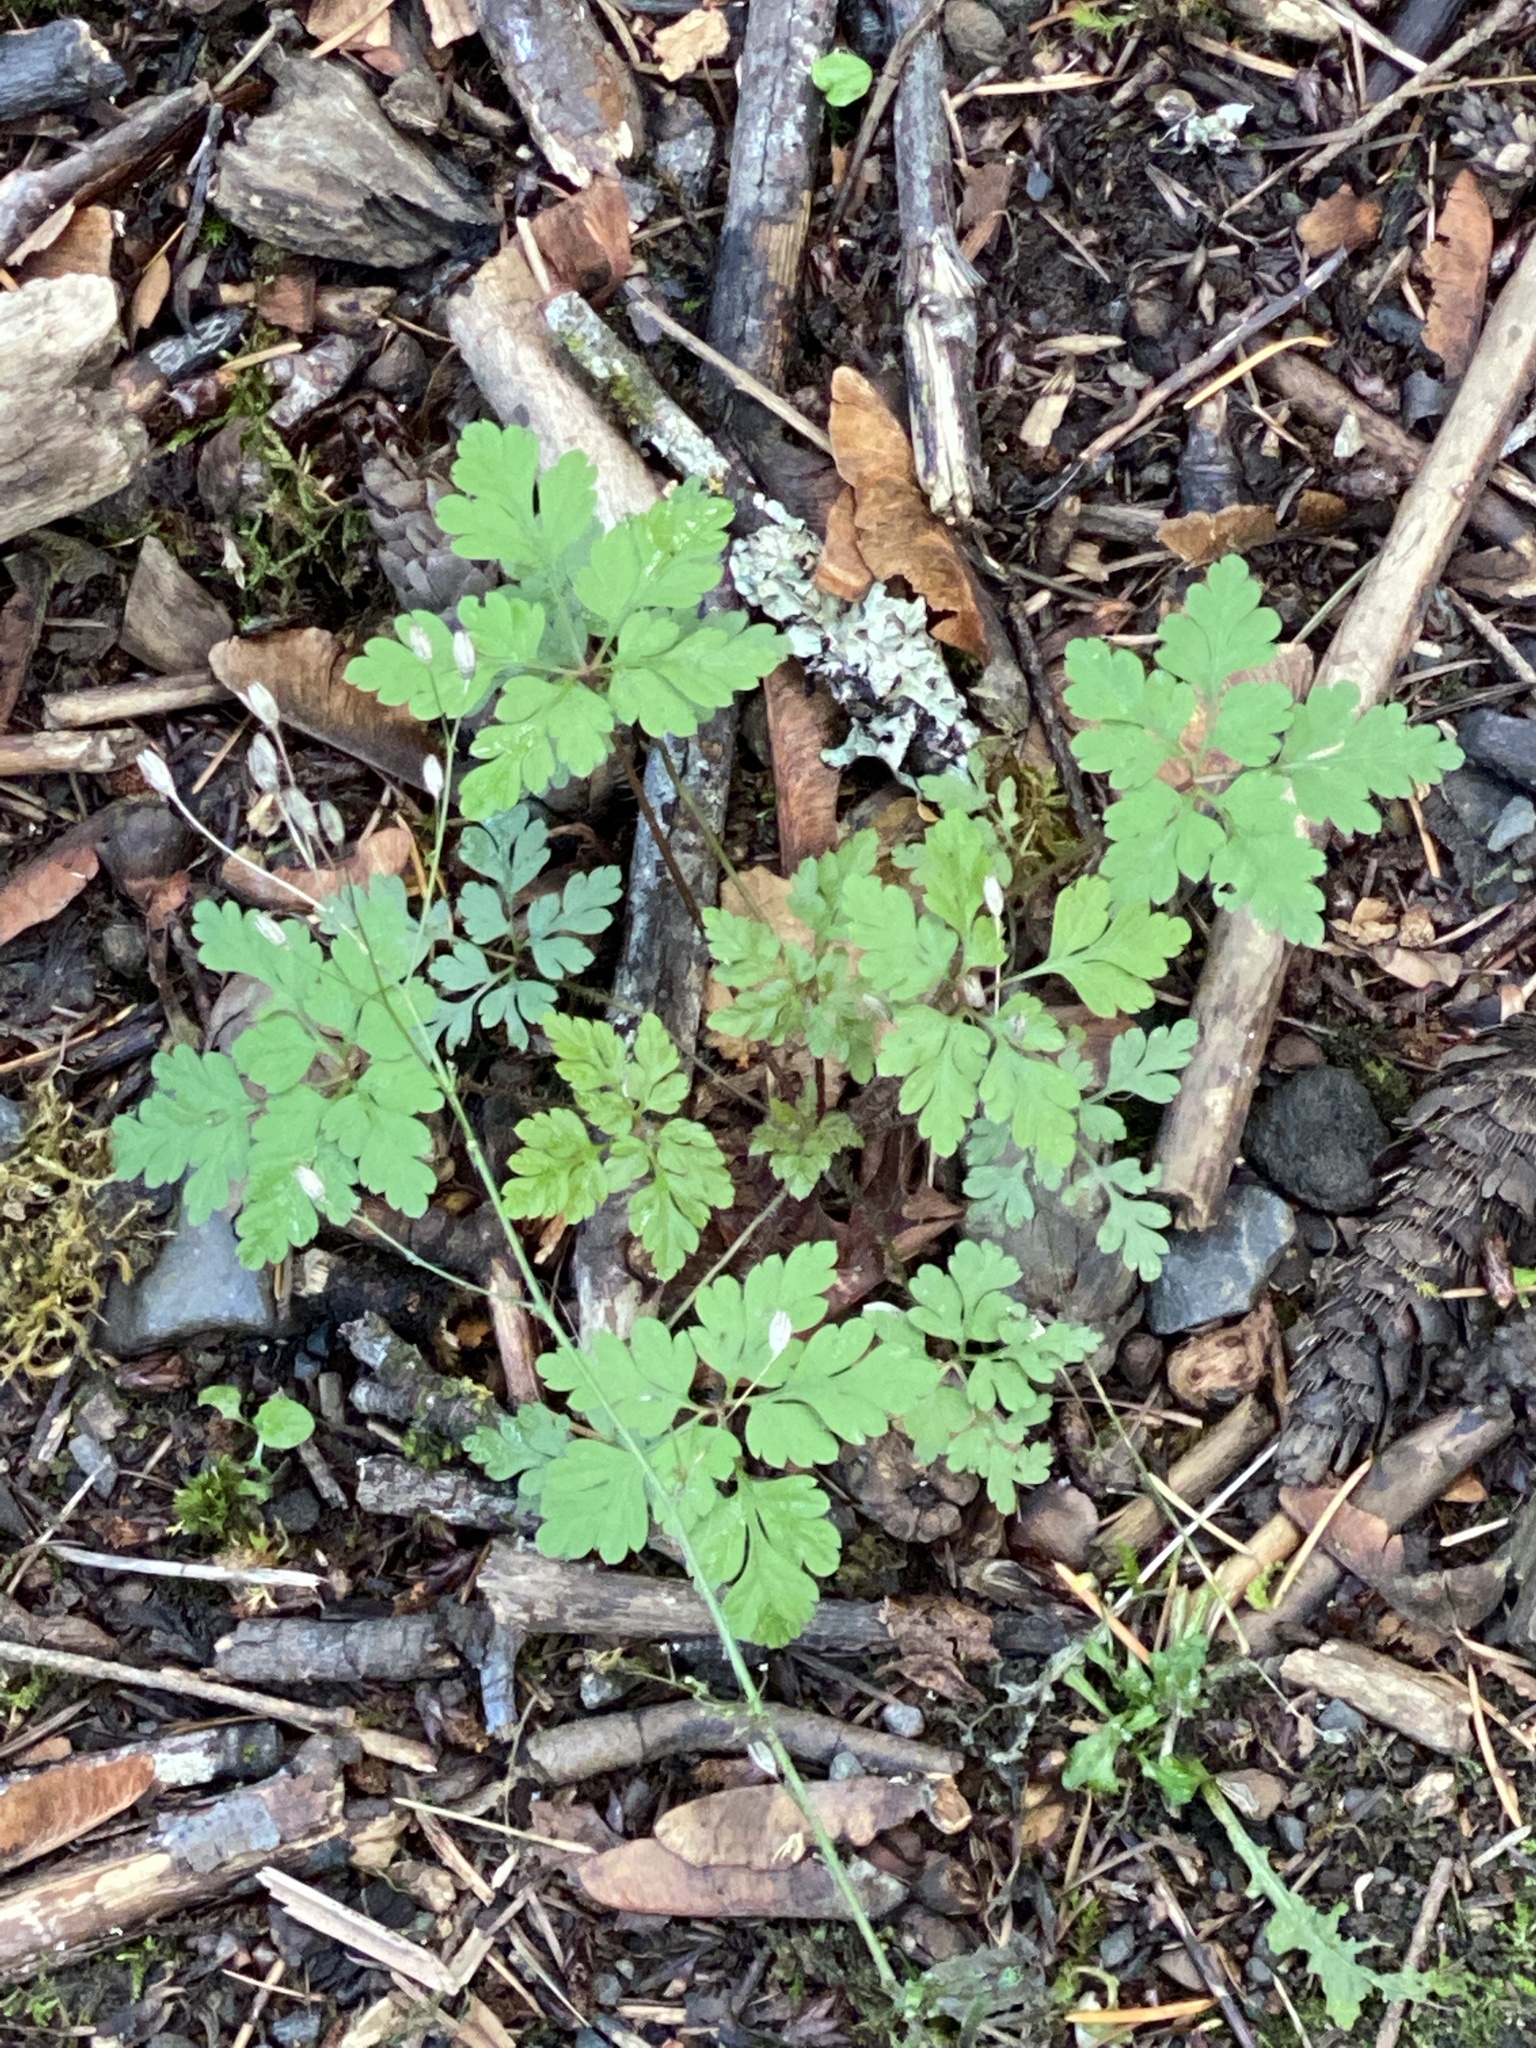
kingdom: Plantae
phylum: Tracheophyta
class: Magnoliopsida
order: Geraniales
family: Geraniaceae
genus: Geranium
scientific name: Geranium robertianum
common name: Herb-robert
